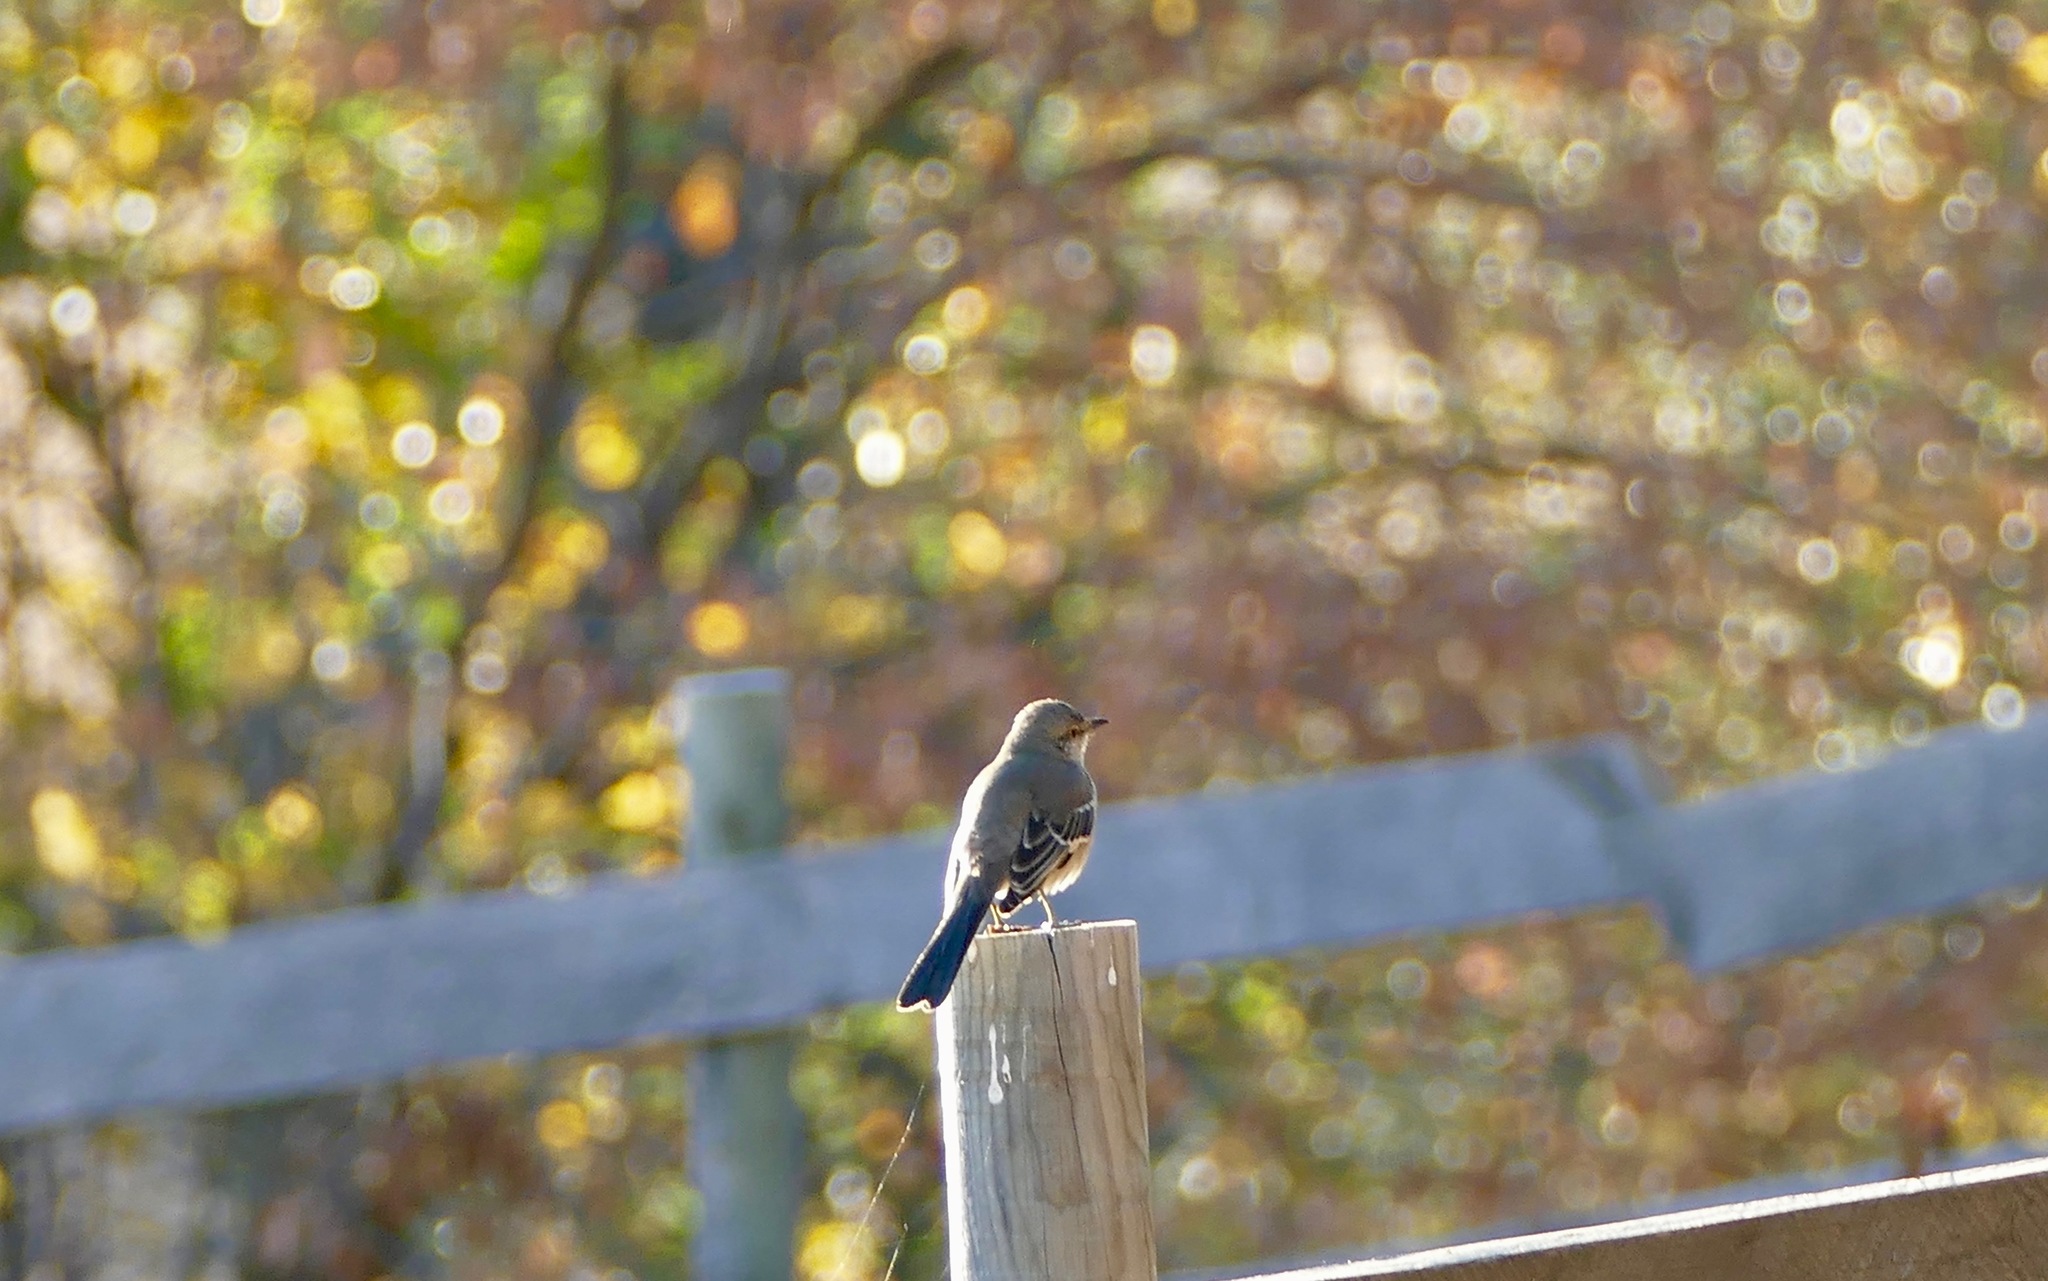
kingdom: Animalia
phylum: Chordata
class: Aves
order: Passeriformes
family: Mimidae
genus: Mimus
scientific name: Mimus polyglottos
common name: Northern mockingbird
